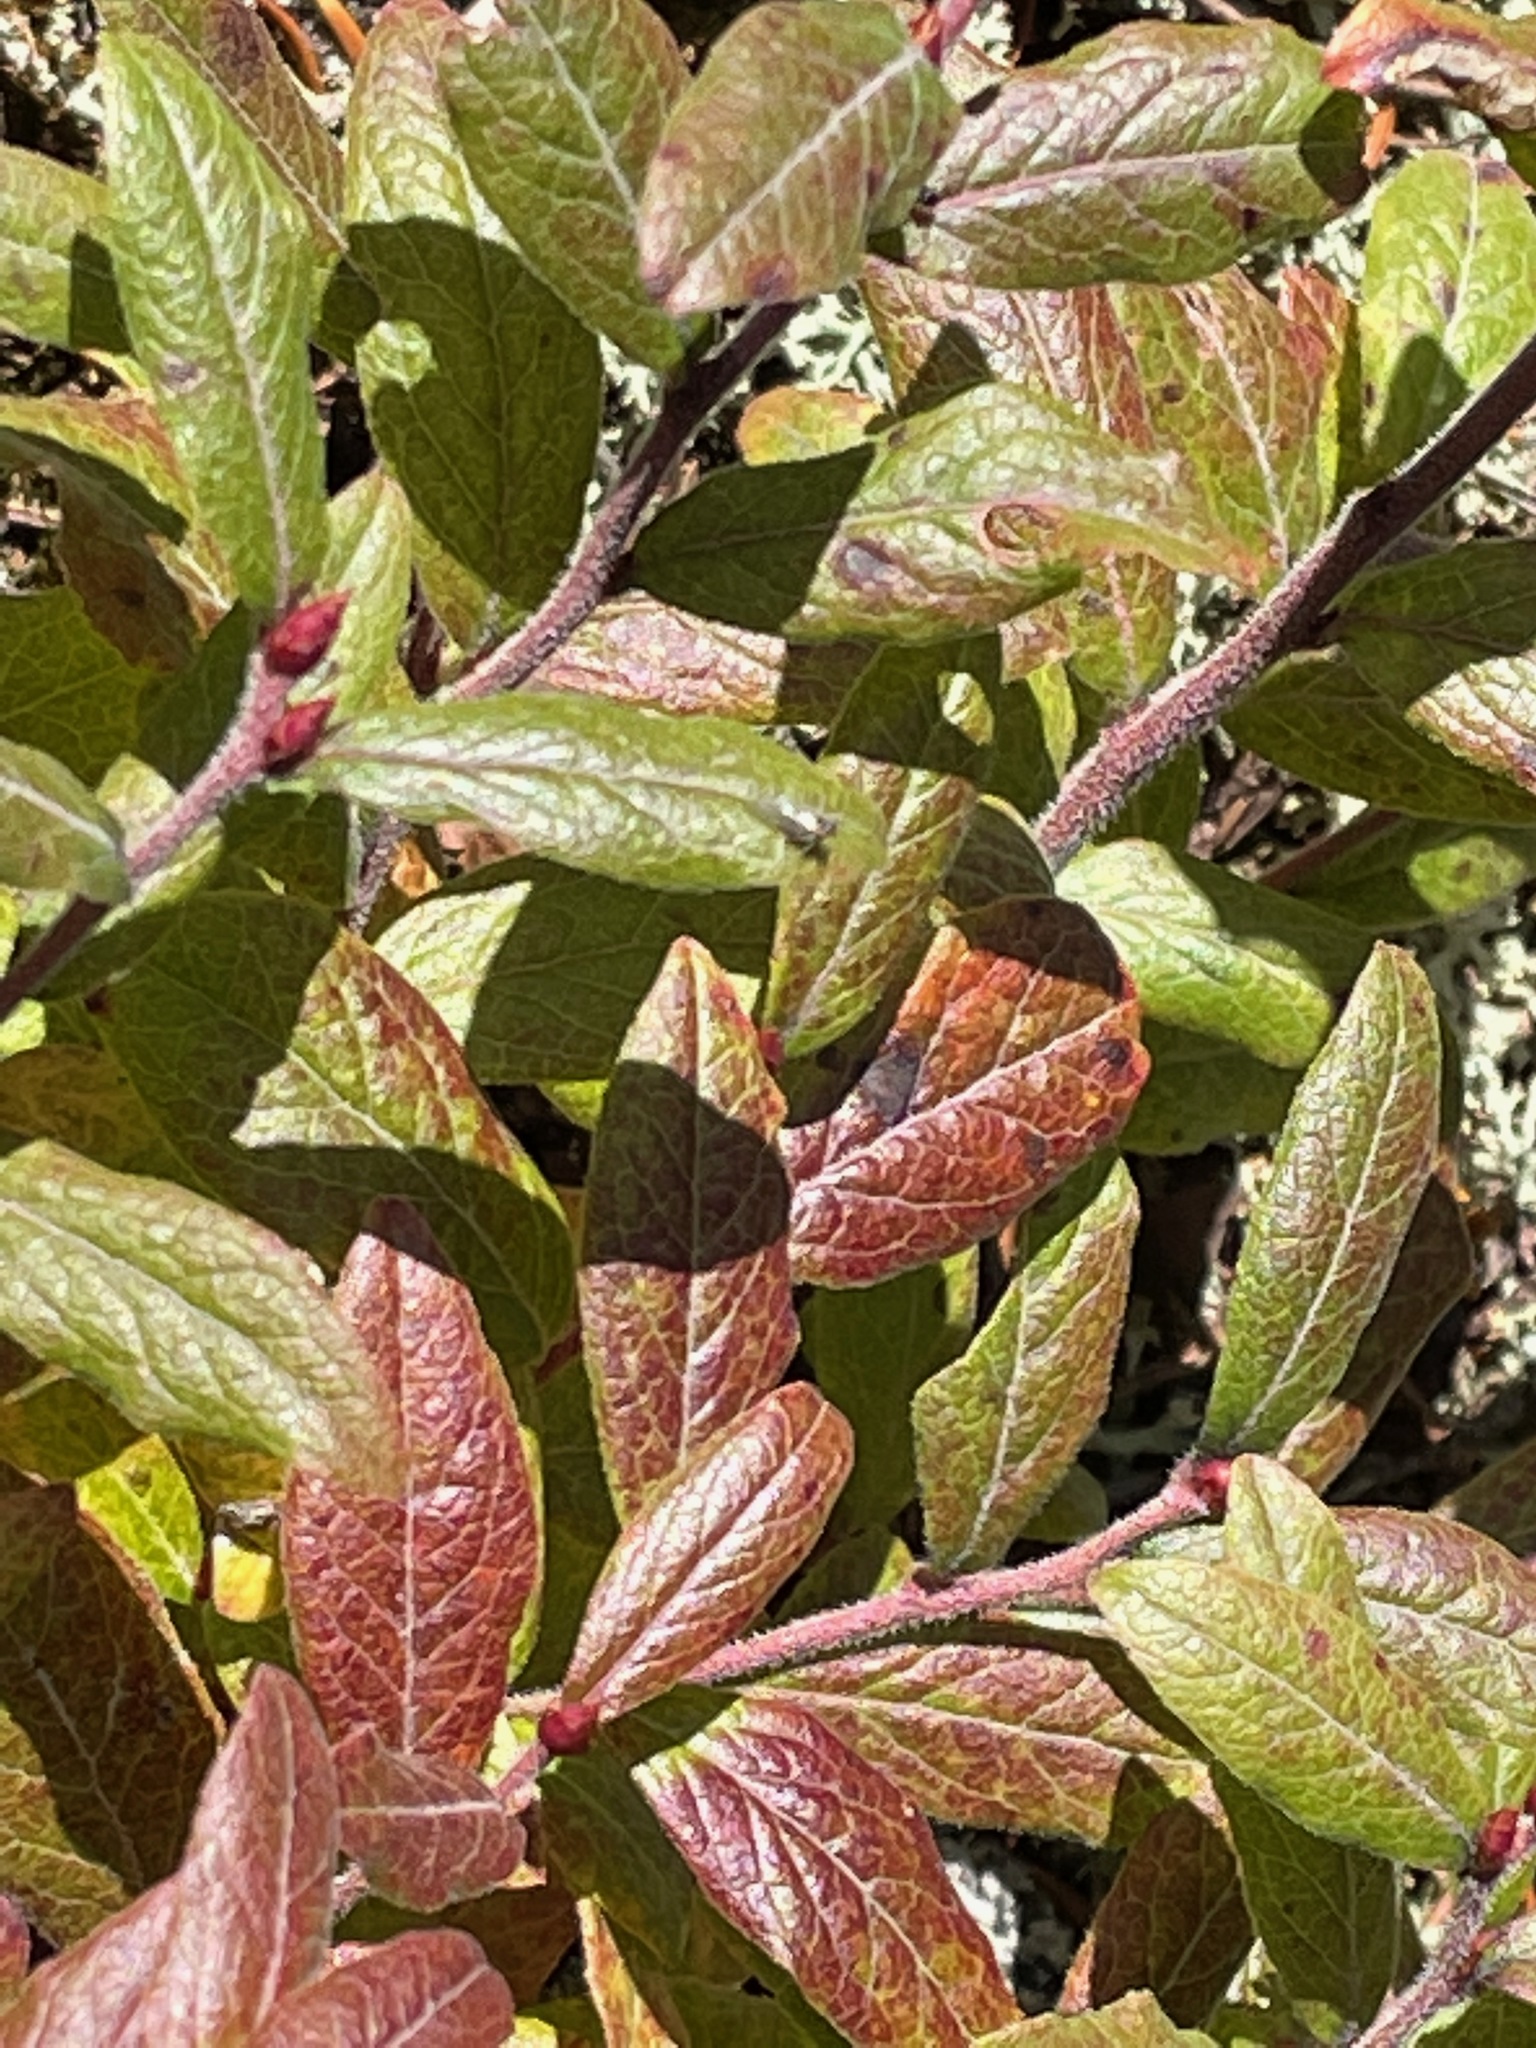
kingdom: Plantae
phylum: Tracheophyta
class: Magnoliopsida
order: Ericales
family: Ericaceae
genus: Vaccinium
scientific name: Vaccinium myrtilloides
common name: Canada blueberry
